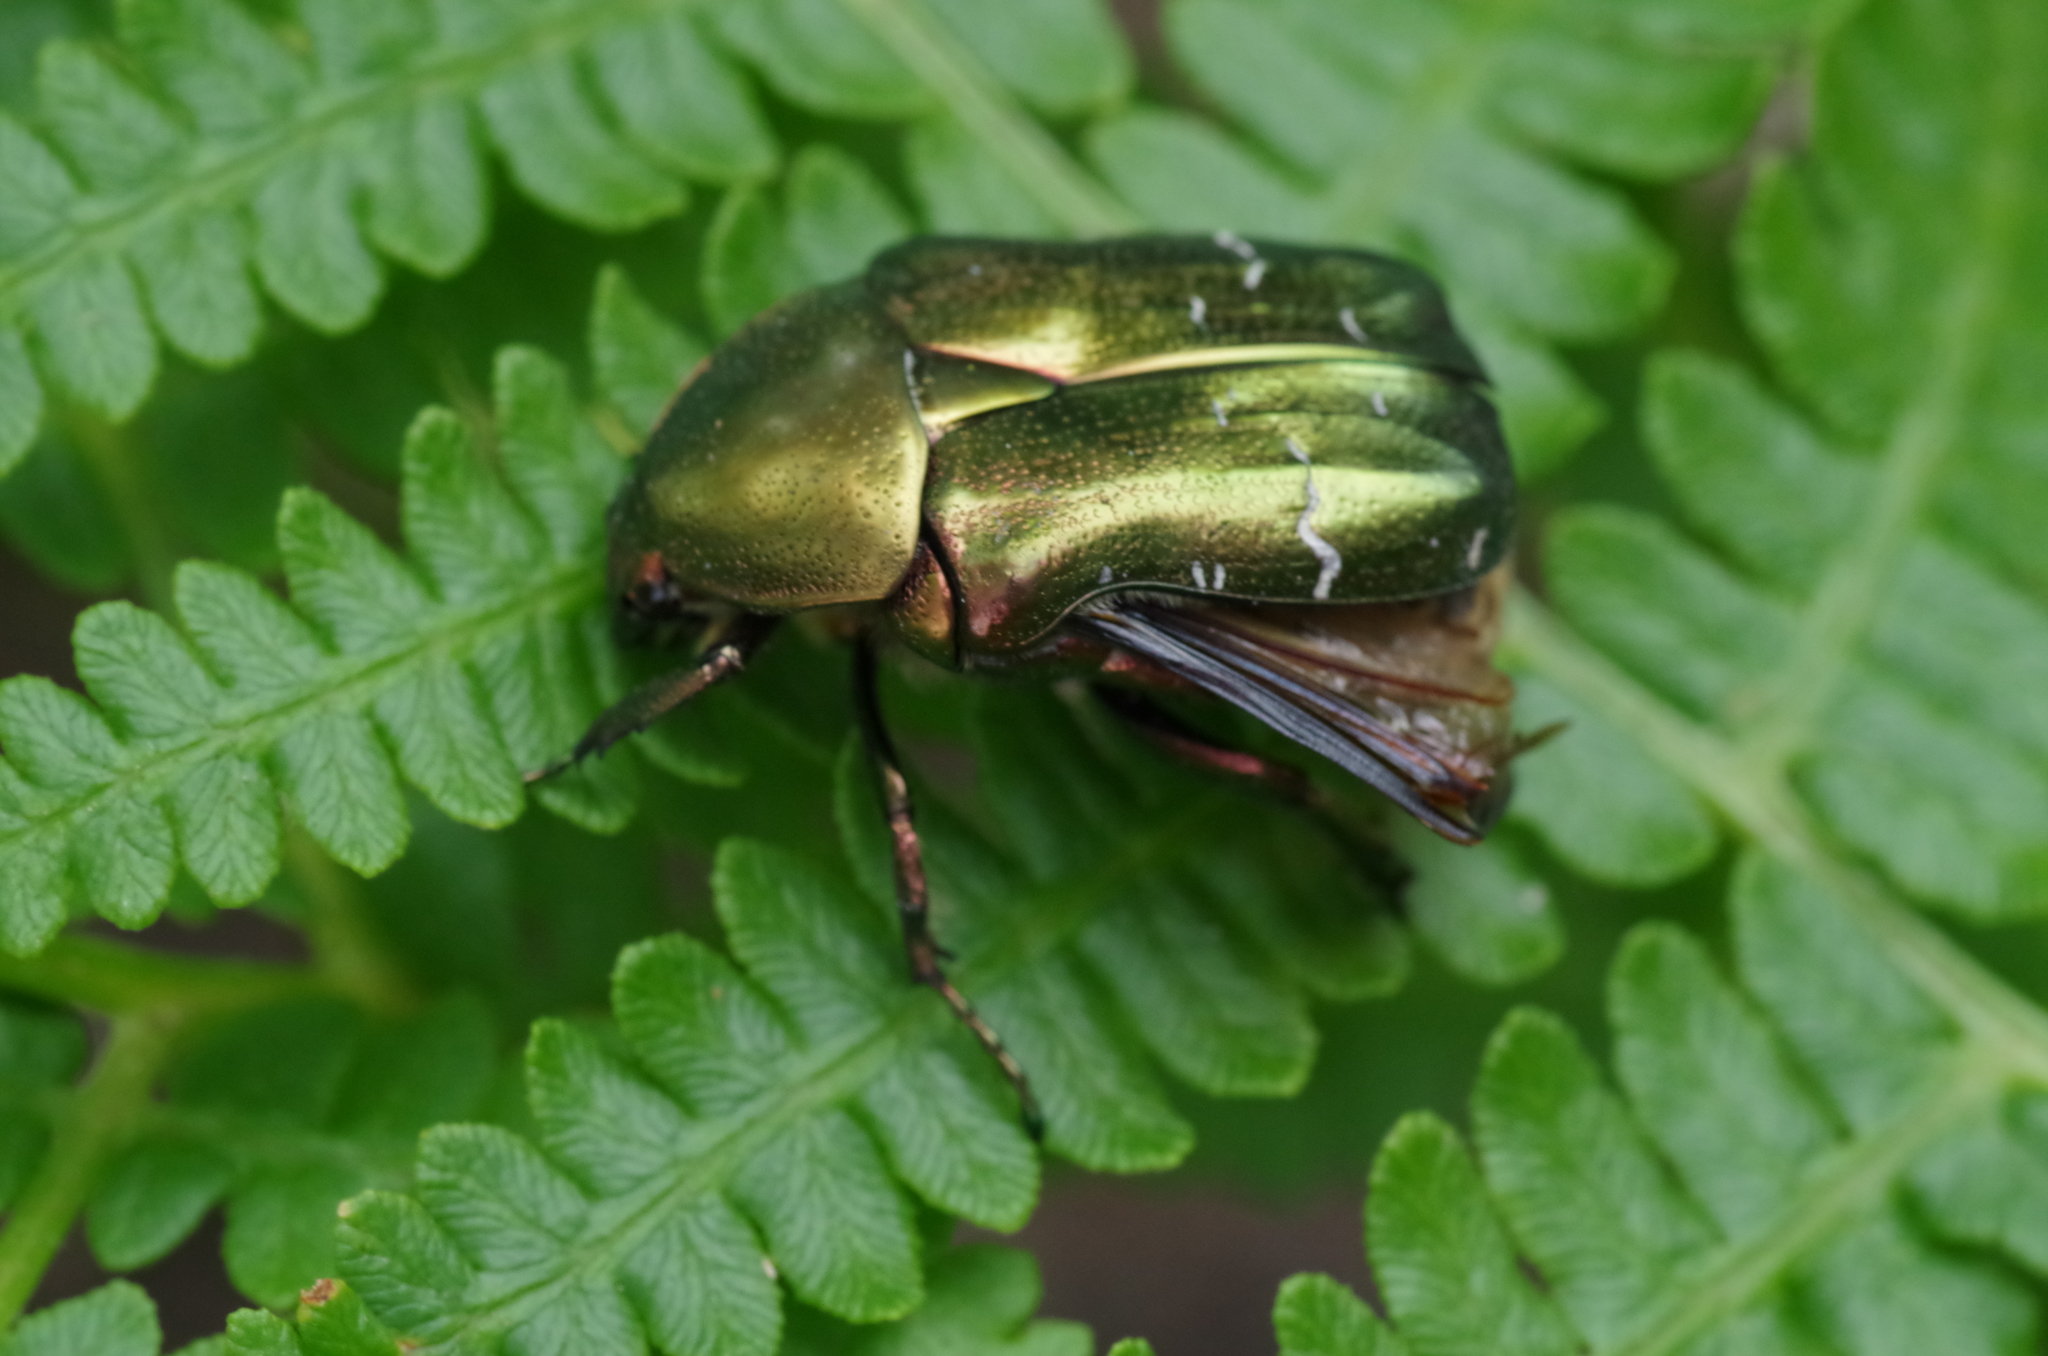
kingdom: Animalia
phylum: Arthropoda
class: Insecta
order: Coleoptera
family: Scarabaeidae
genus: Cetonia
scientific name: Cetonia aurata
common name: Rose chafer
